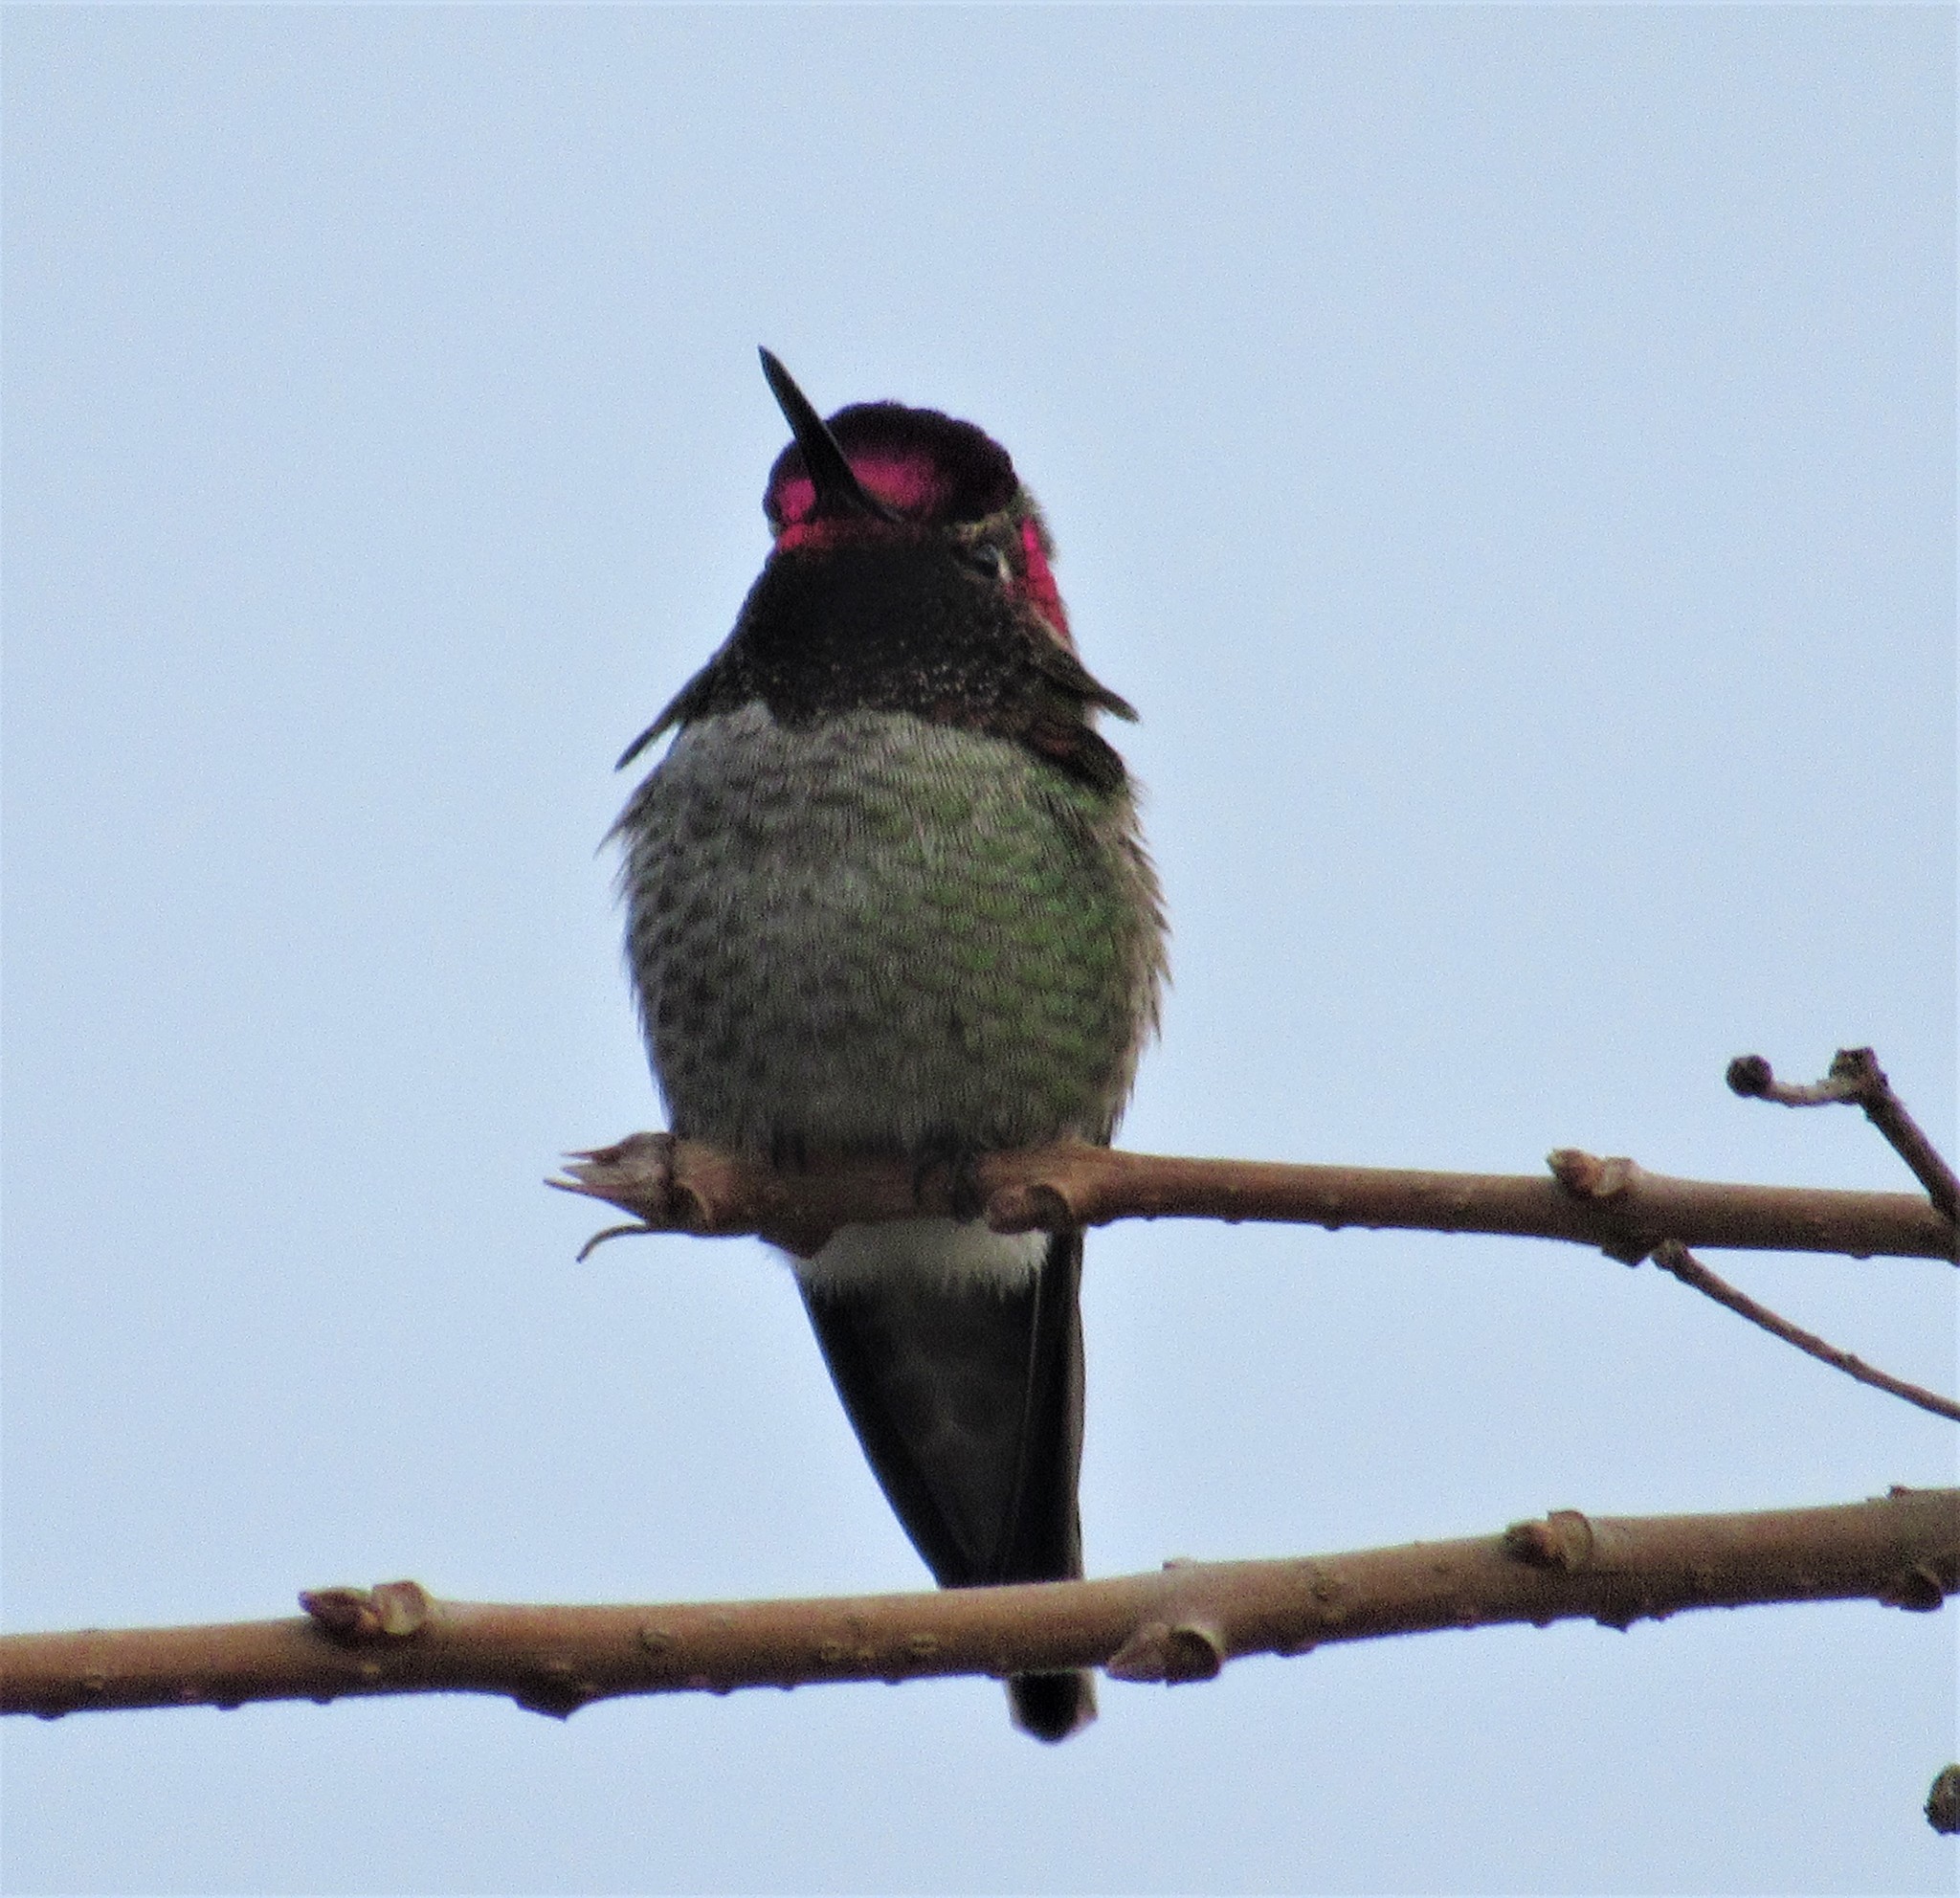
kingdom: Animalia
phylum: Chordata
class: Aves
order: Apodiformes
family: Trochilidae
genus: Calypte
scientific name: Calypte anna
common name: Anna's hummingbird
